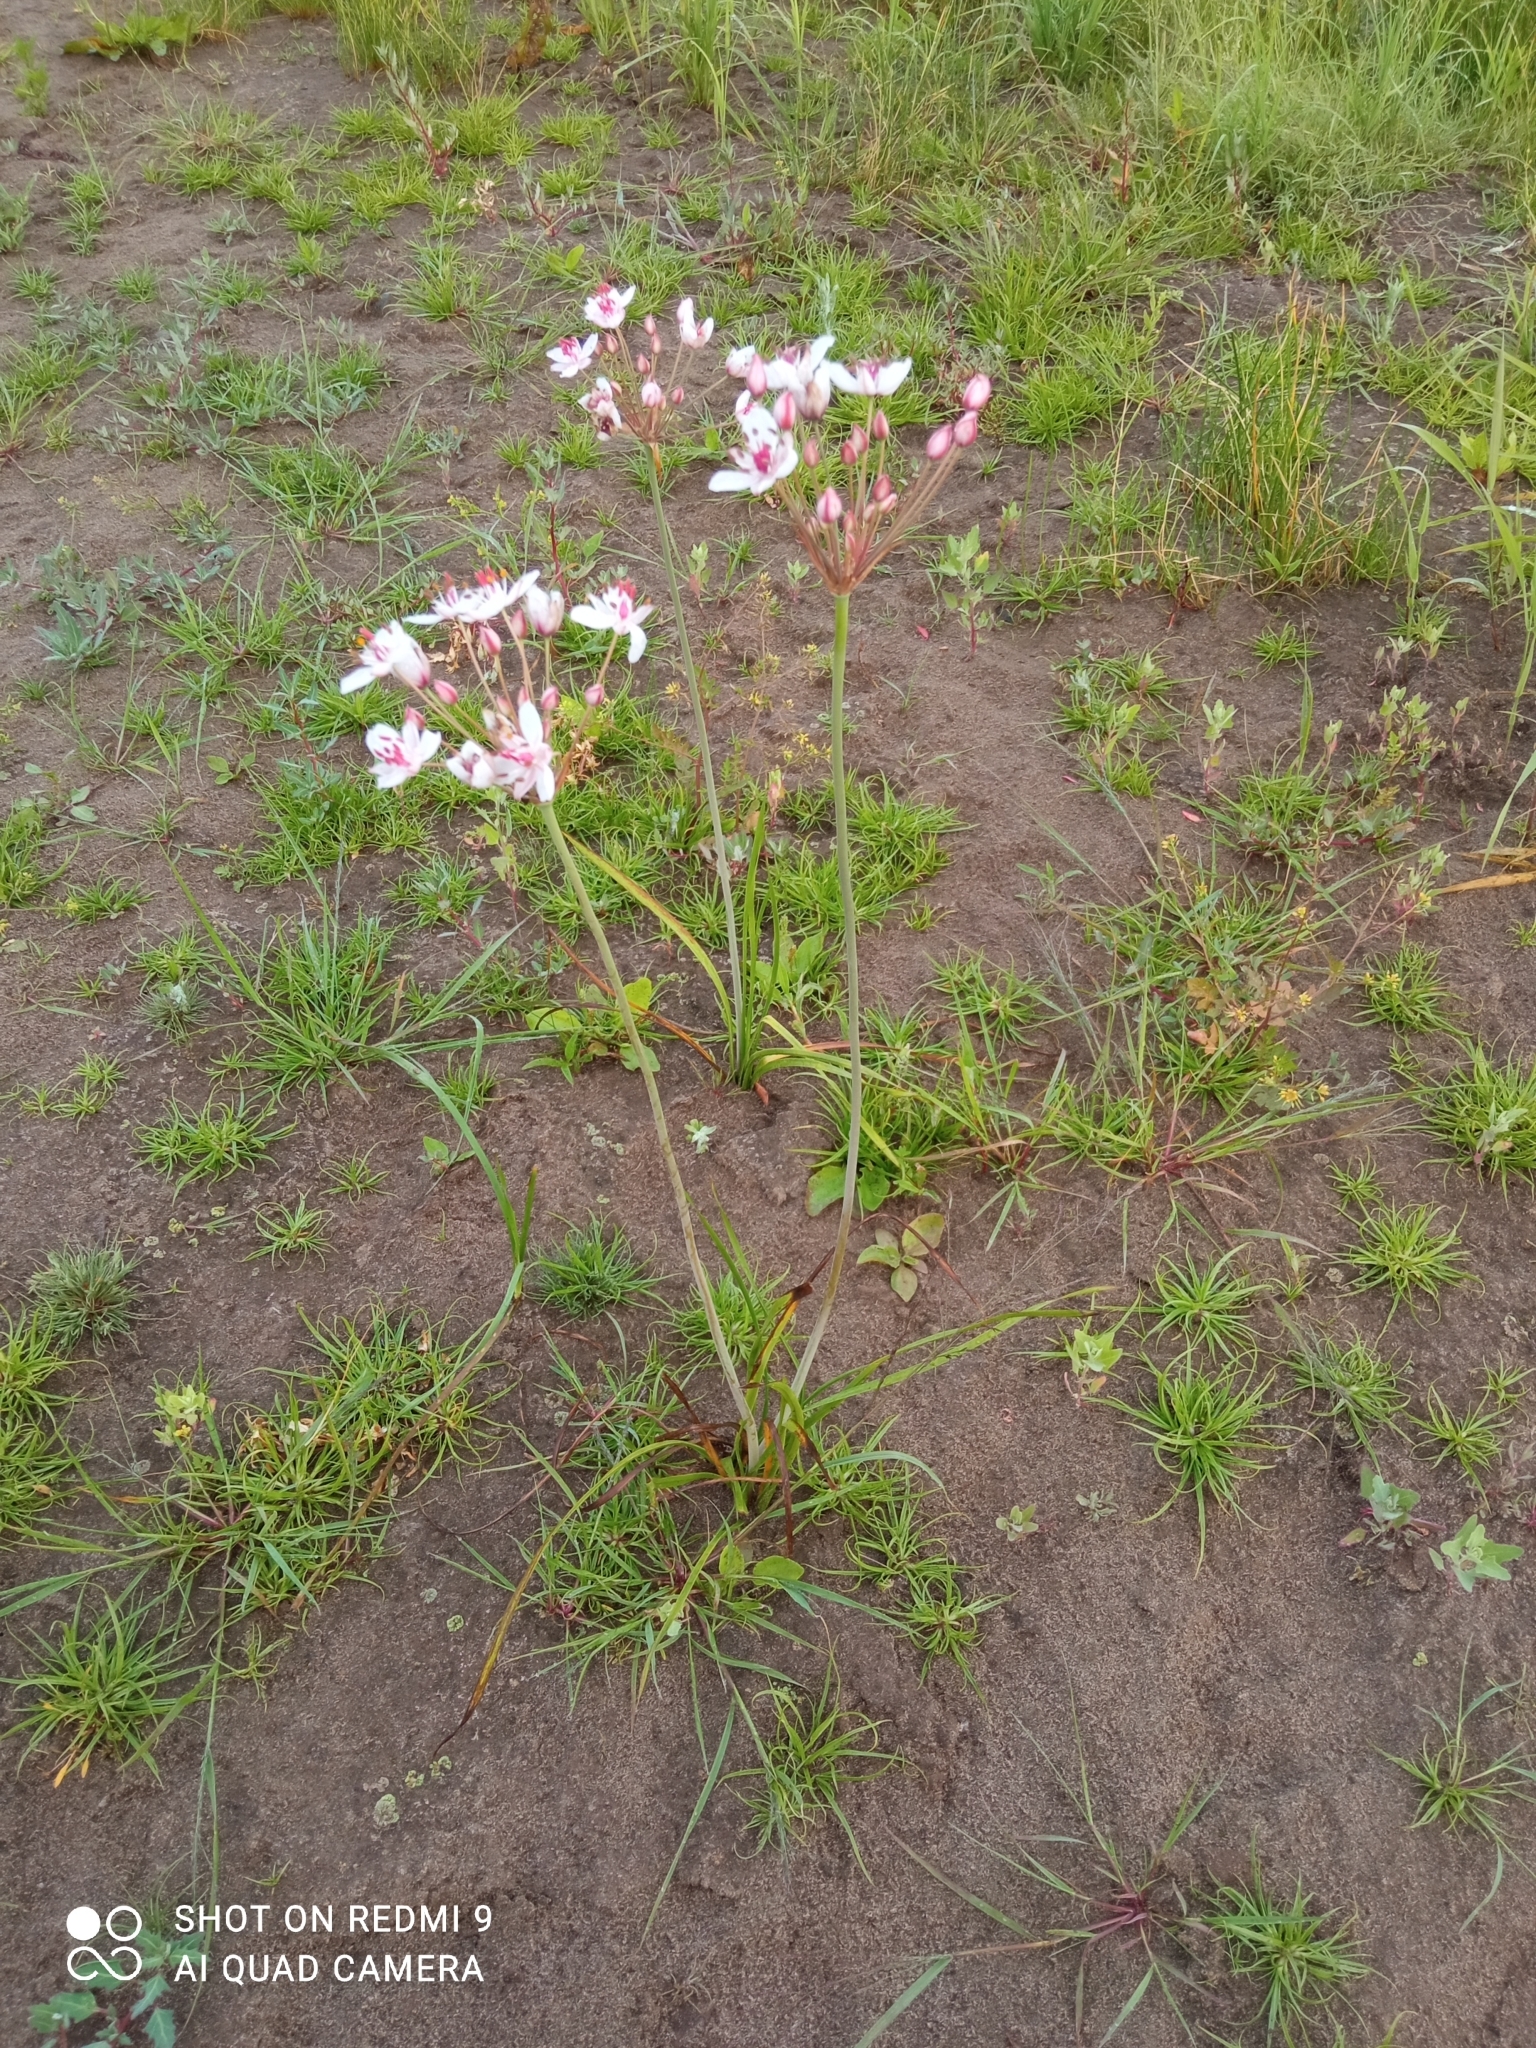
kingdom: Plantae
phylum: Tracheophyta
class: Liliopsida
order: Alismatales
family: Butomaceae
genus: Butomus
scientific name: Butomus umbellatus
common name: Flowering-rush
